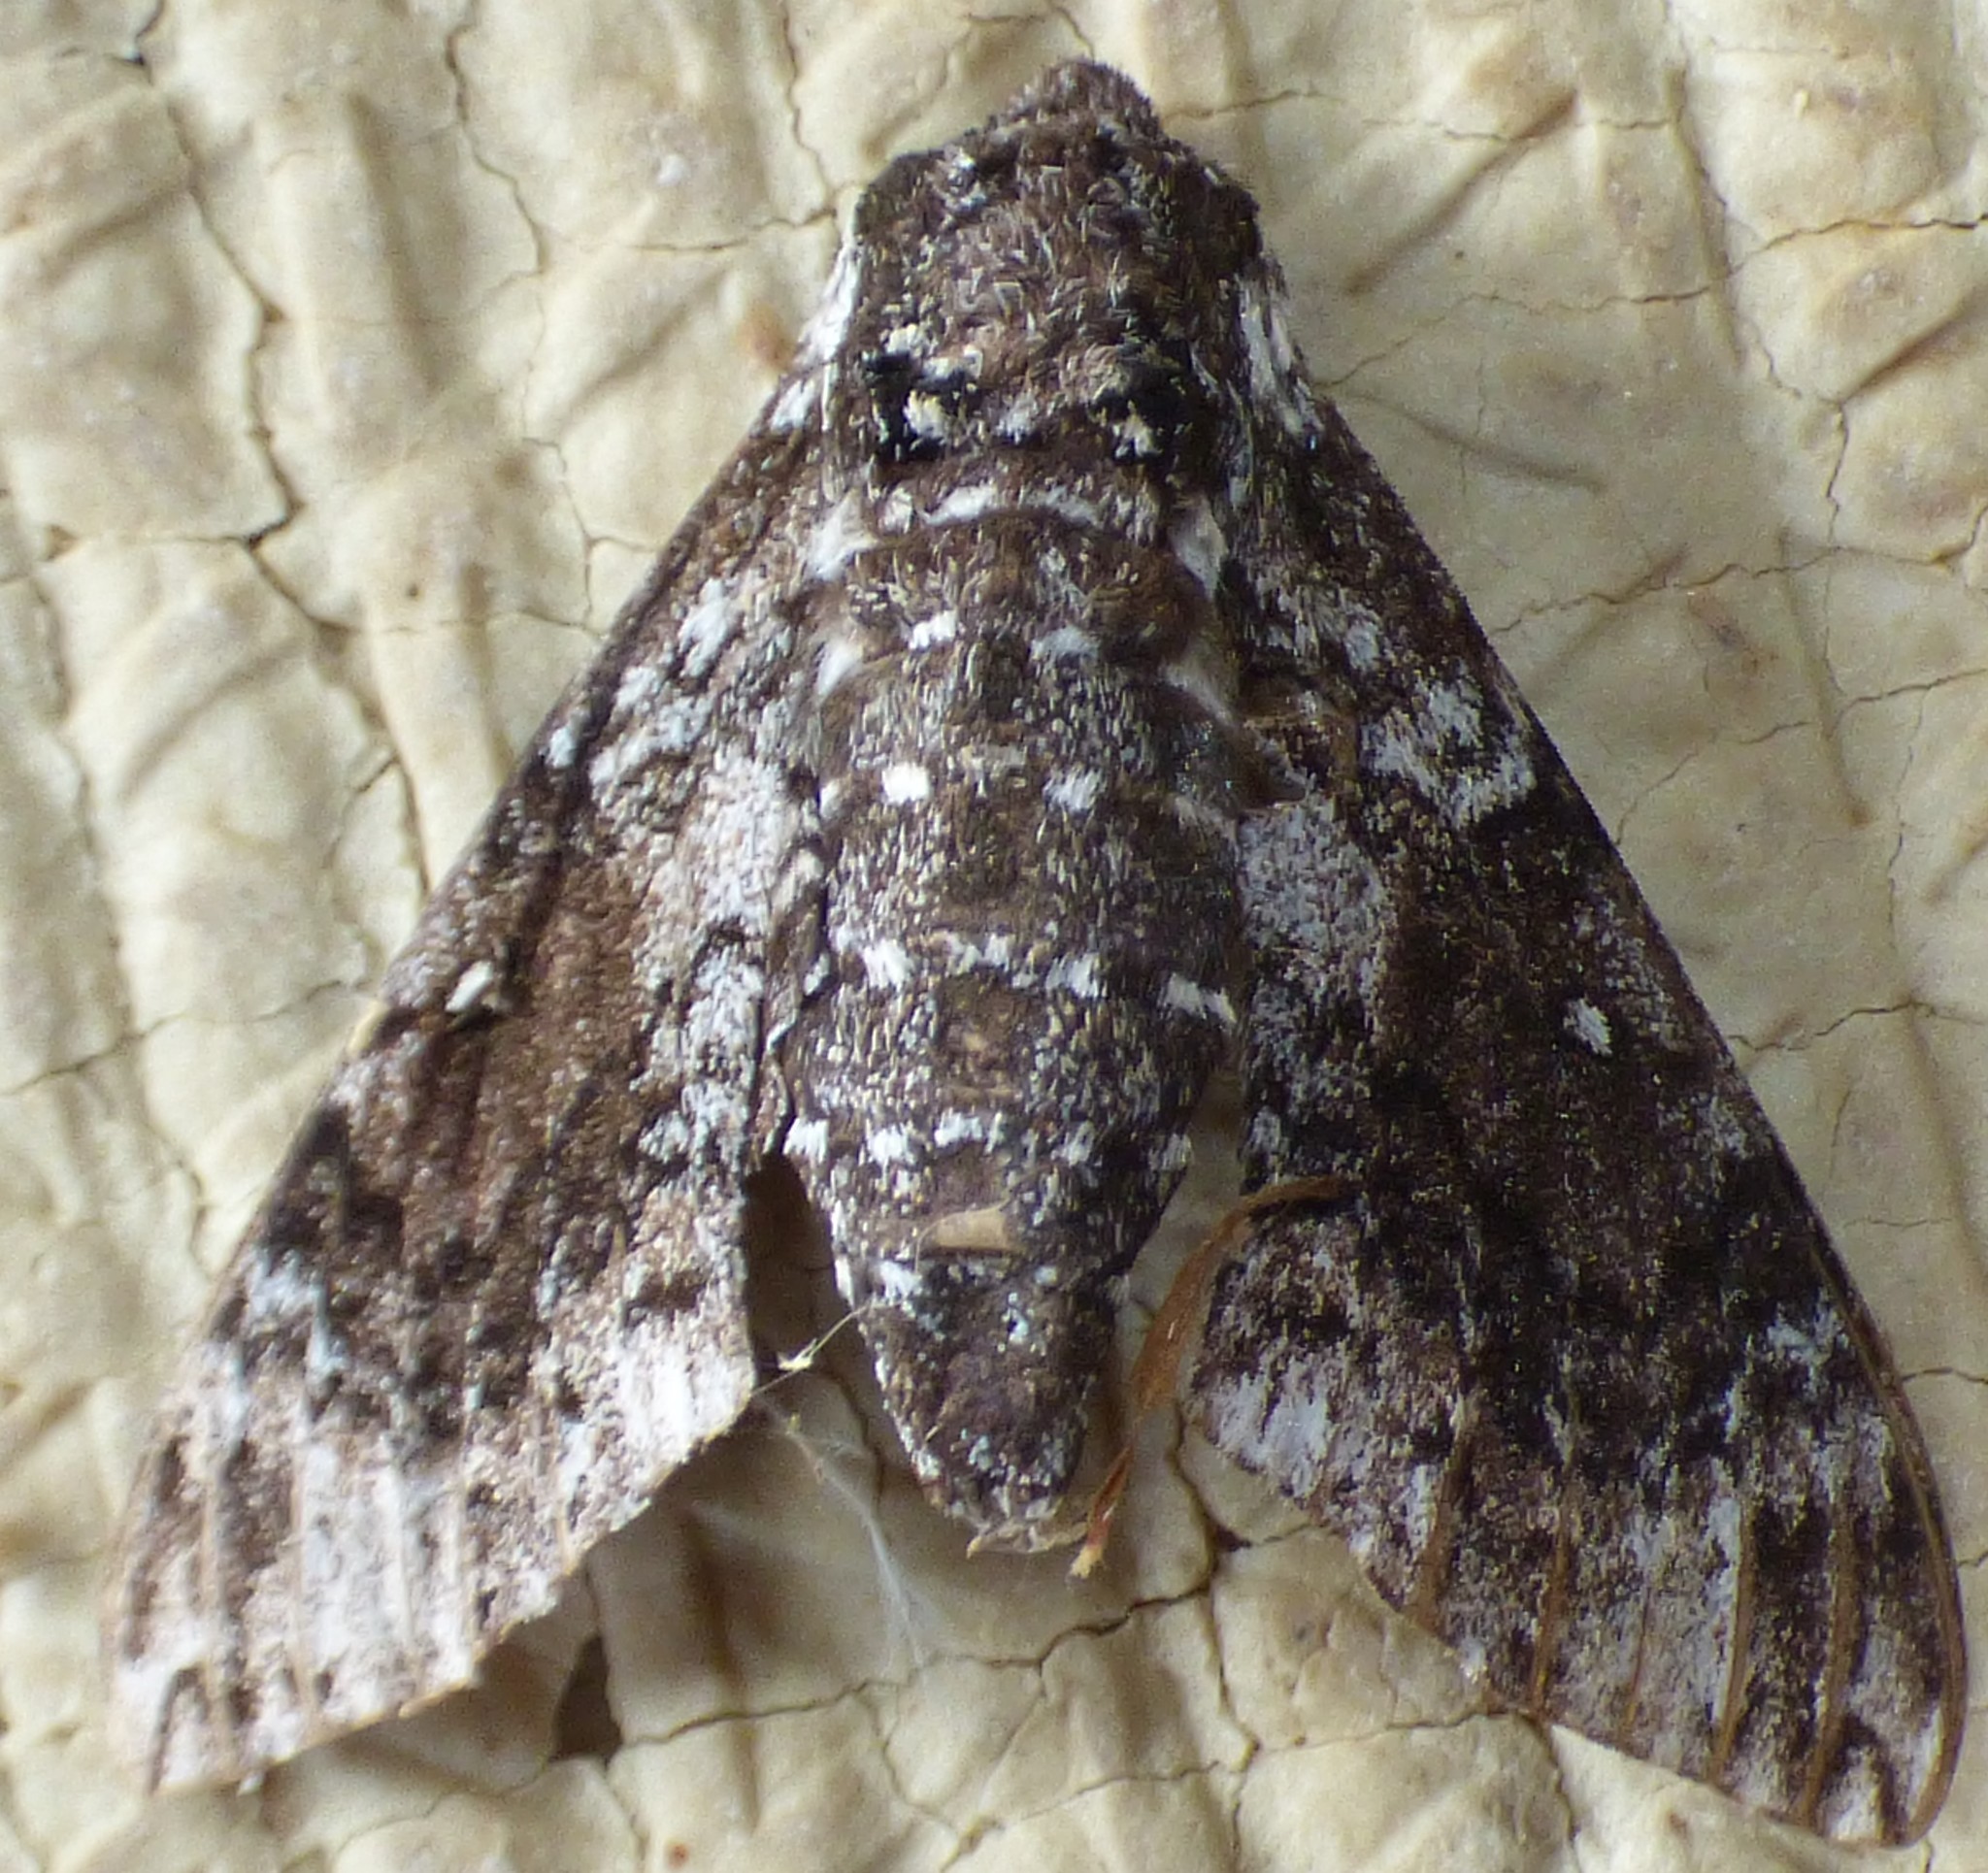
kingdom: Animalia
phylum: Arthropoda
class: Insecta
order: Lepidoptera
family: Sphingidae
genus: Dolba
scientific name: Dolba hyloeus
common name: Pawpaw sphinx
